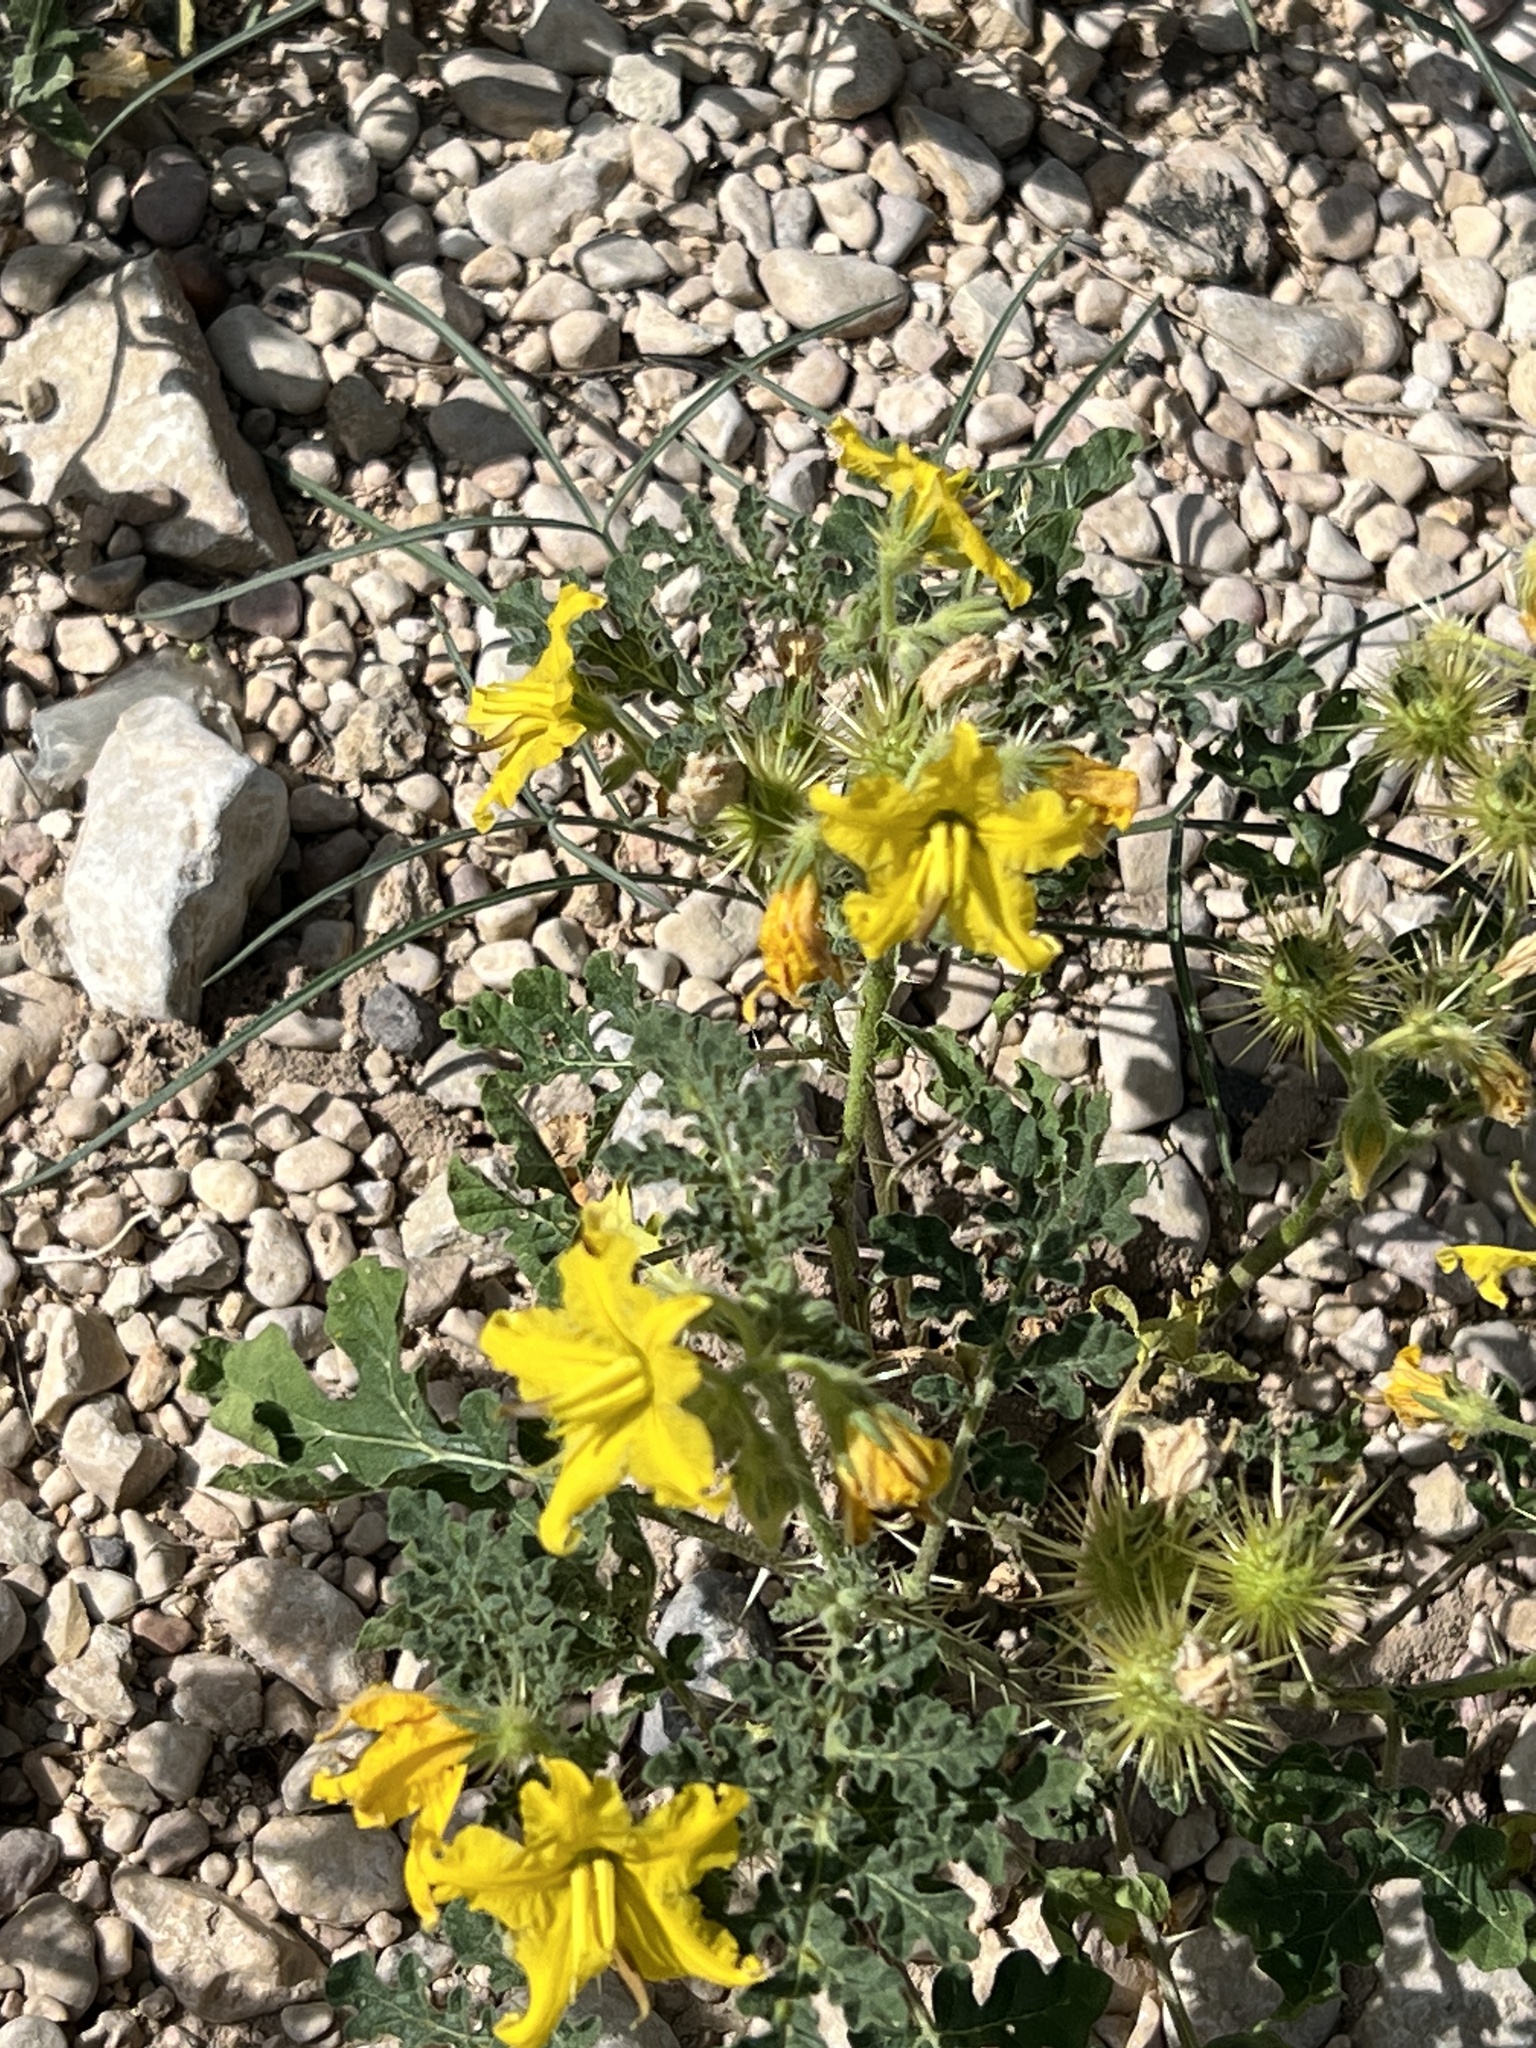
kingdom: Plantae
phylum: Tracheophyta
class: Magnoliopsida
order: Solanales
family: Solanaceae
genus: Solanum
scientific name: Solanum angustifolium
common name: Buffalobur nightshade
